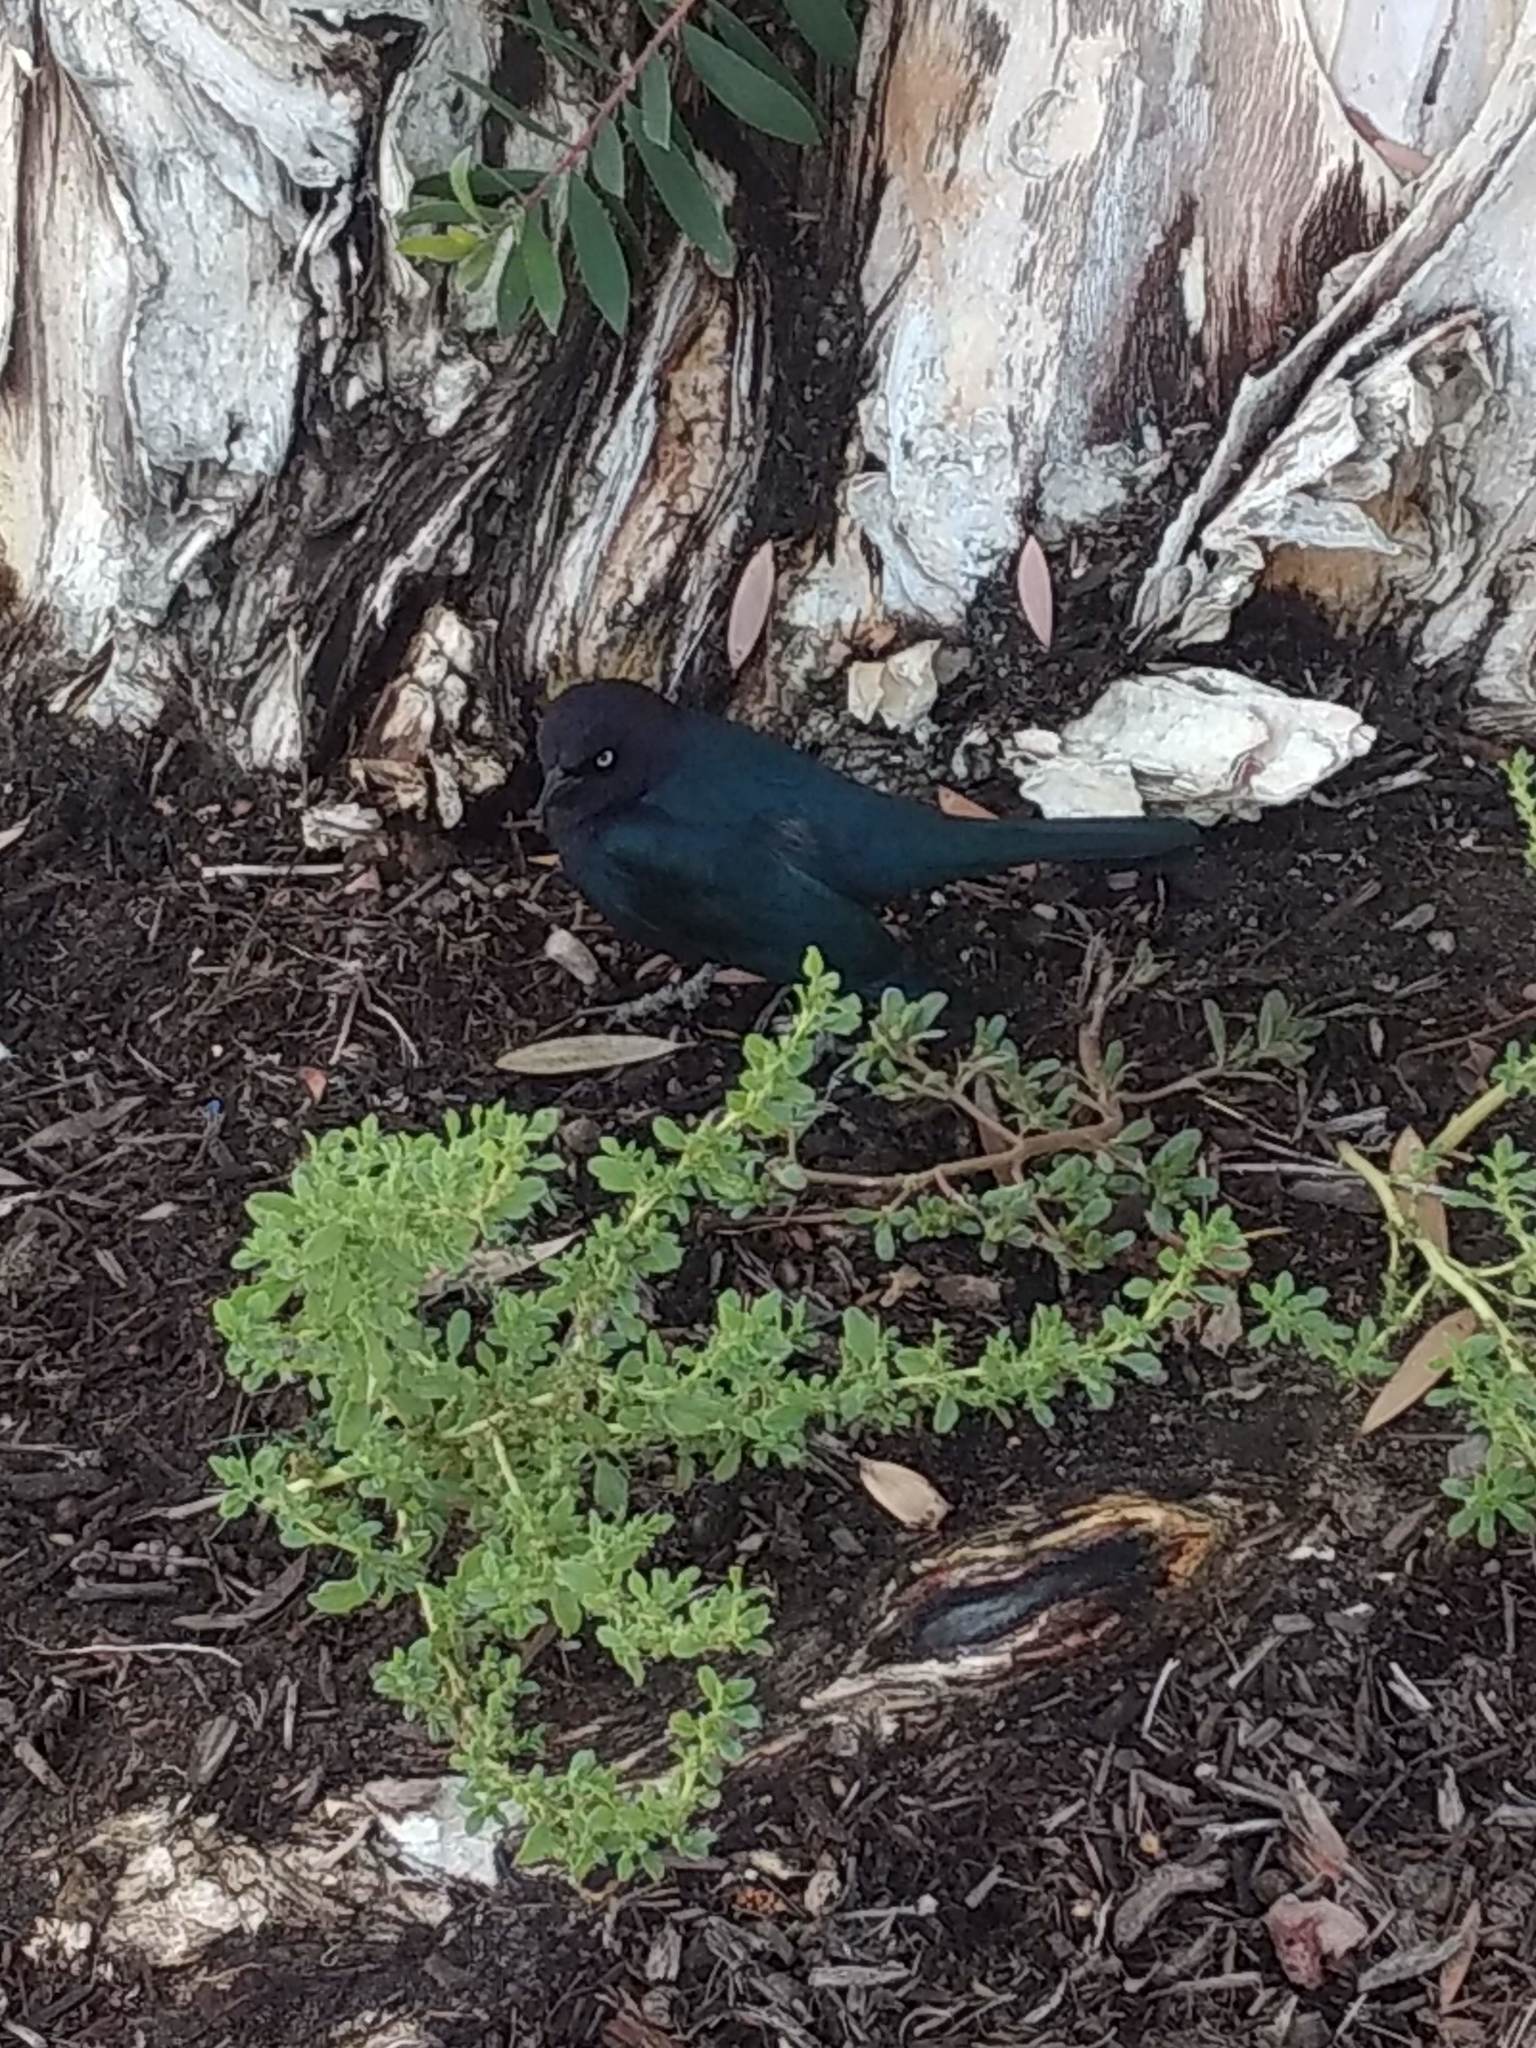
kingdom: Animalia
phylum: Chordata
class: Aves
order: Passeriformes
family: Icteridae
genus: Euphagus
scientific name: Euphagus cyanocephalus
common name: Brewer's blackbird
